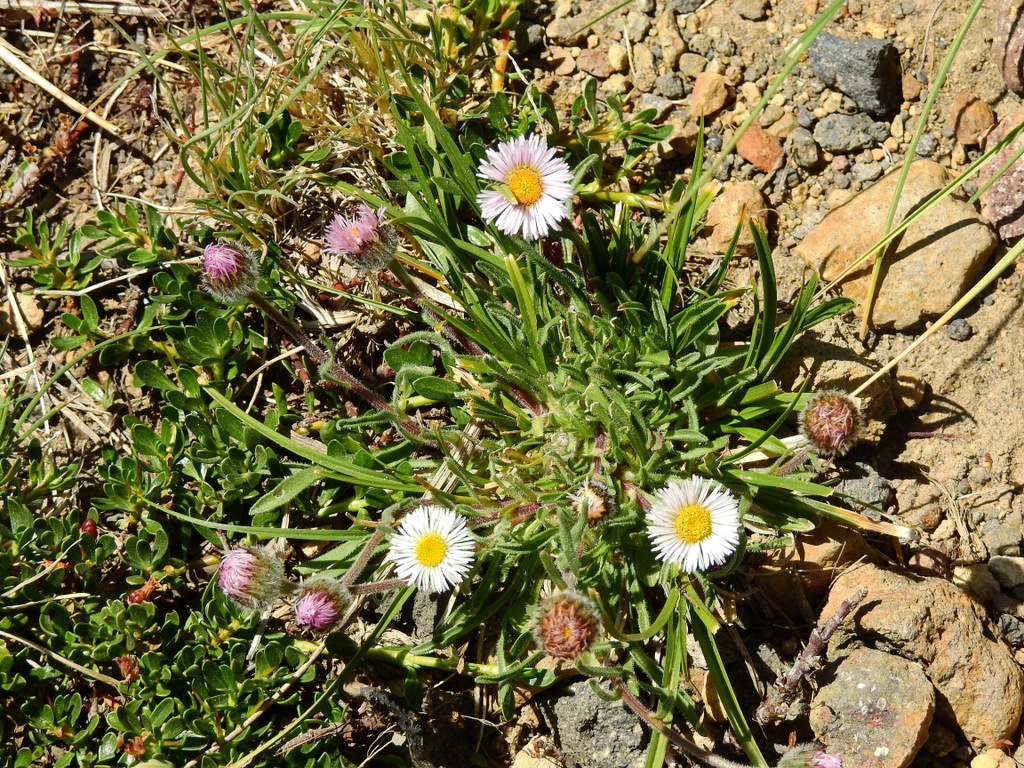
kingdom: Plantae
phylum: Tracheophyta
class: Magnoliopsida
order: Asterales
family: Asteraceae
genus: Erigeron
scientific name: Erigeron patagonicus
